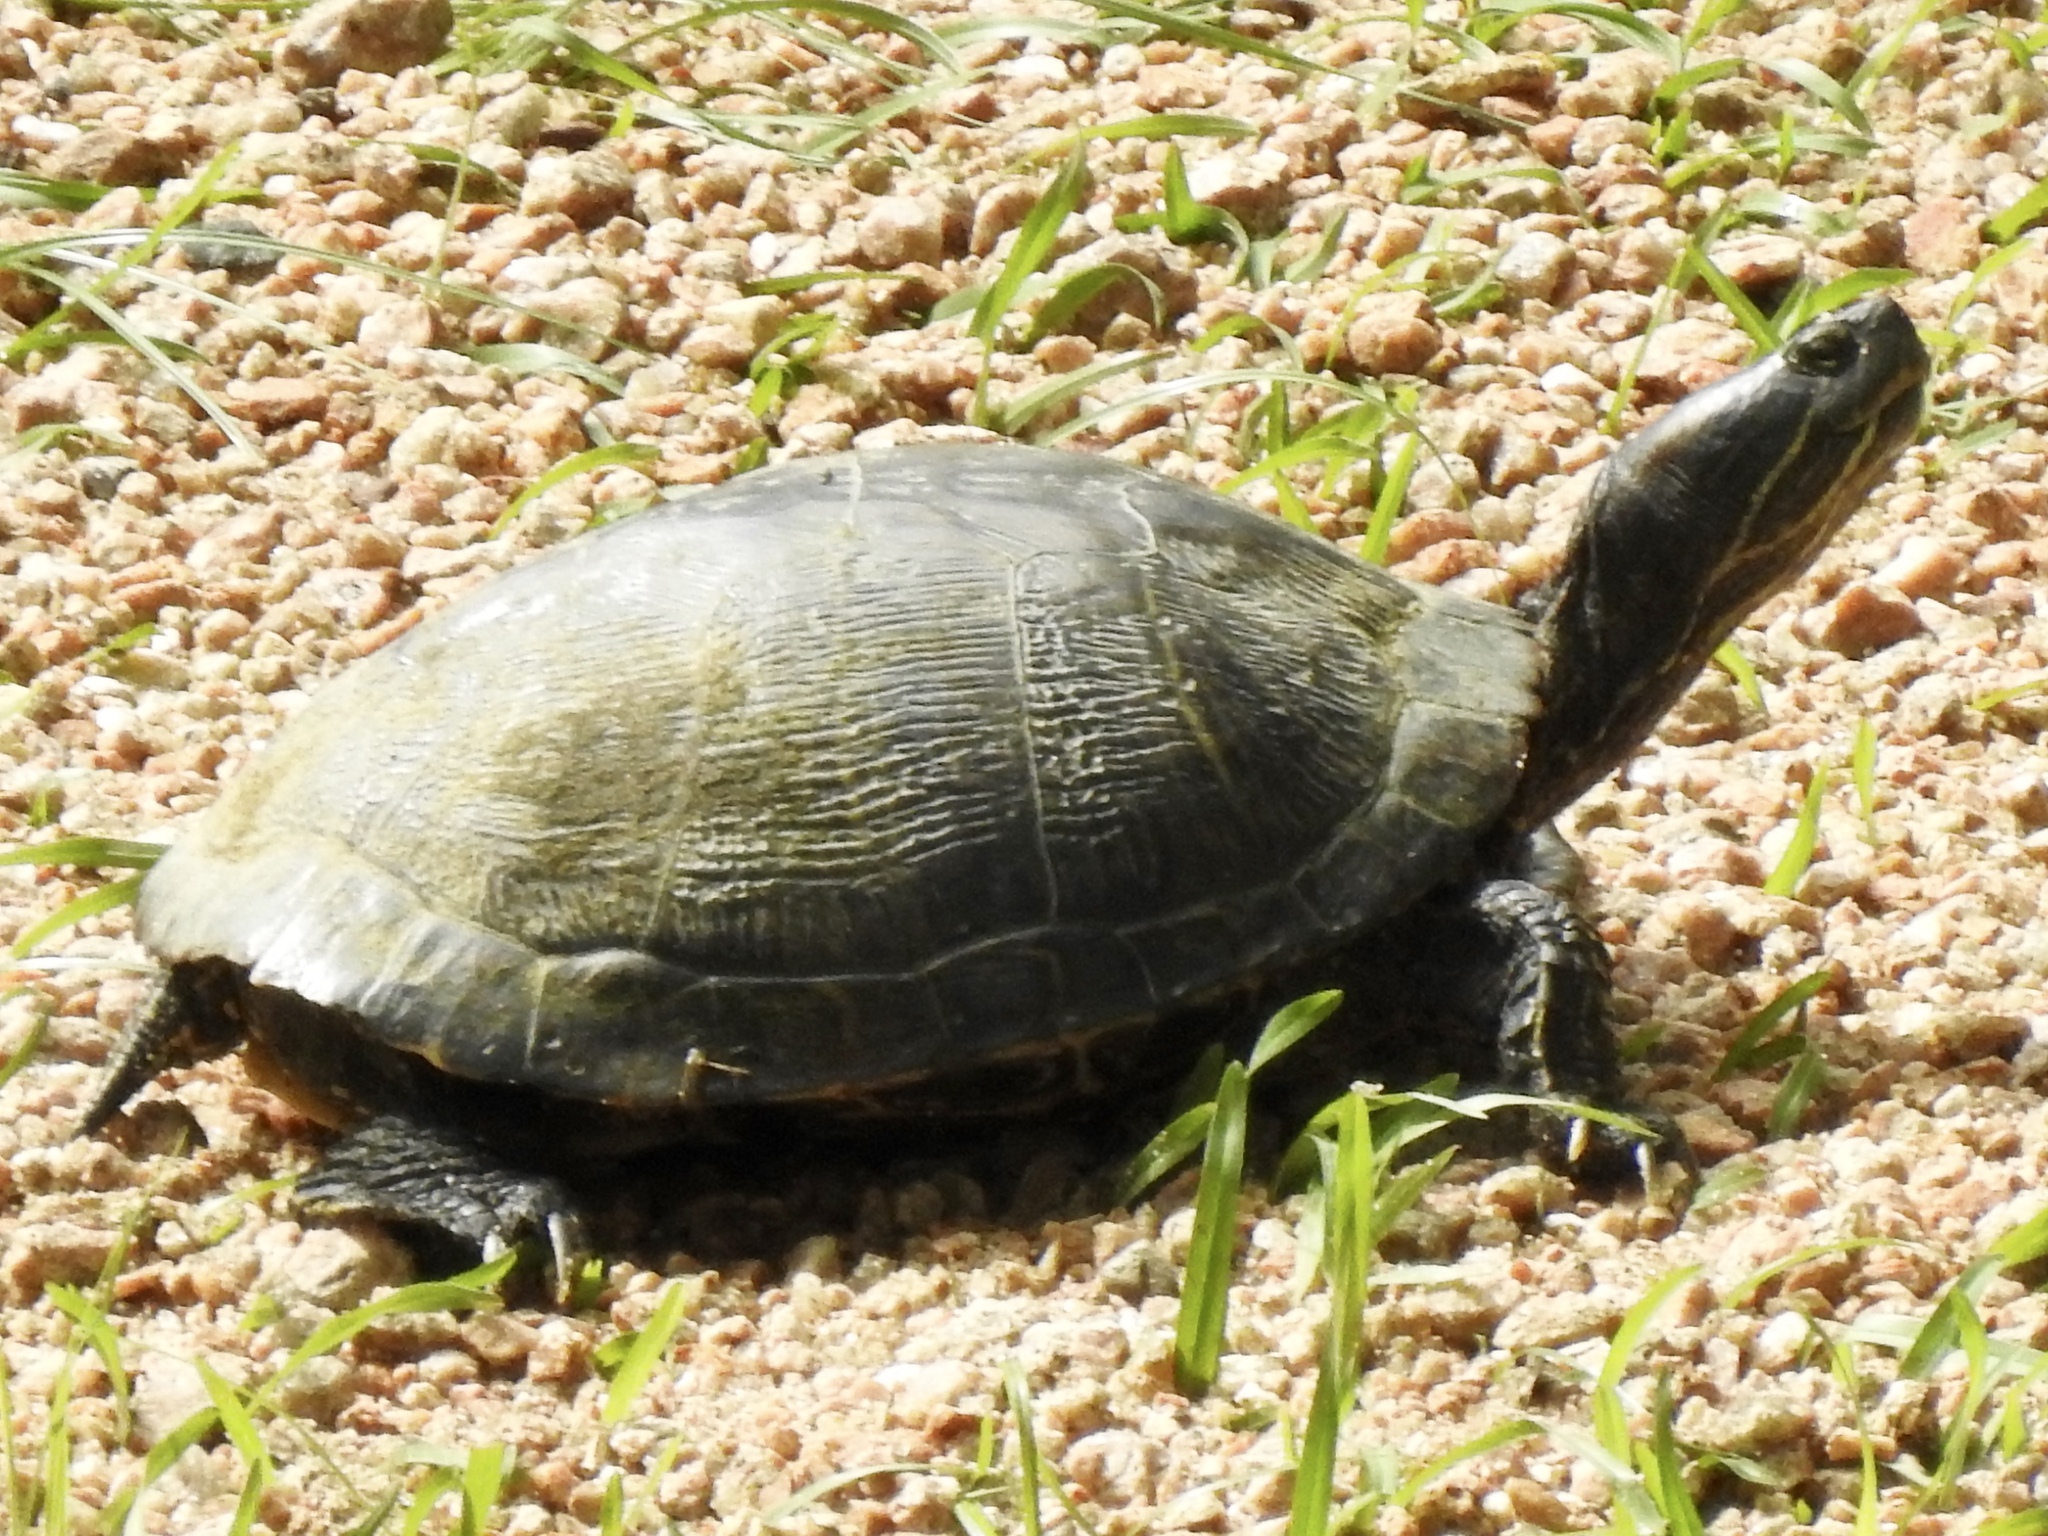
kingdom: Animalia
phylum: Chordata
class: Testudines
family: Emydidae
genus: Trachemys
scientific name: Trachemys scripta
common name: Slider
